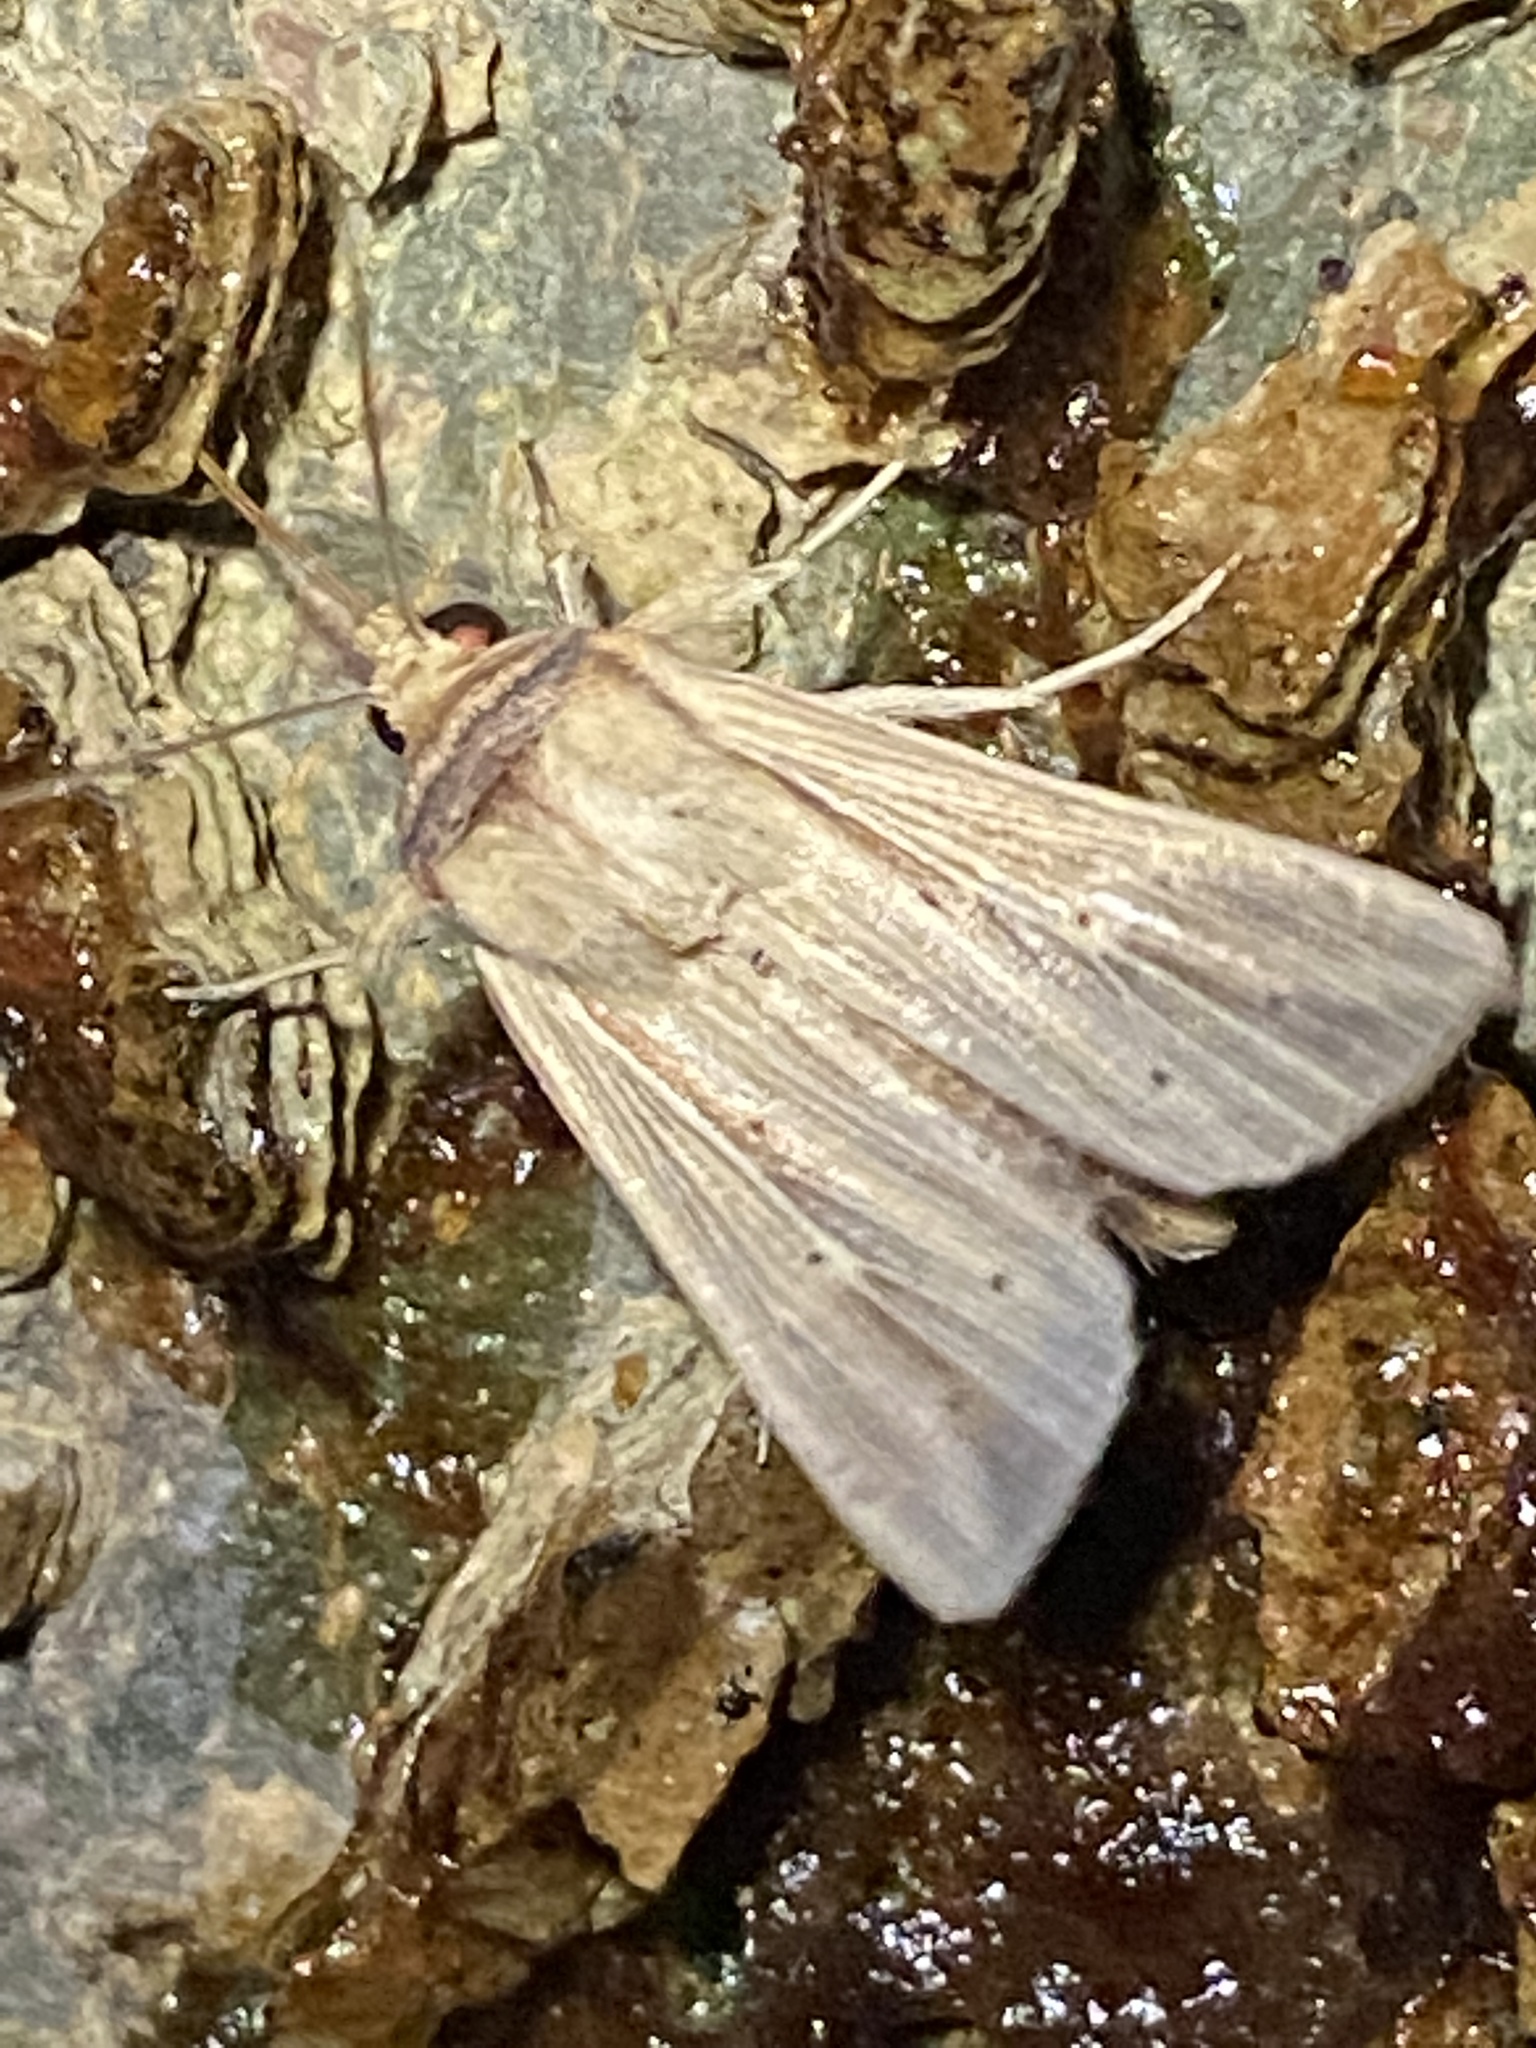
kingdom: Animalia
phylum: Arthropoda
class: Insecta
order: Lepidoptera
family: Noctuidae
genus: Leucania
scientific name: Leucania adjuta
